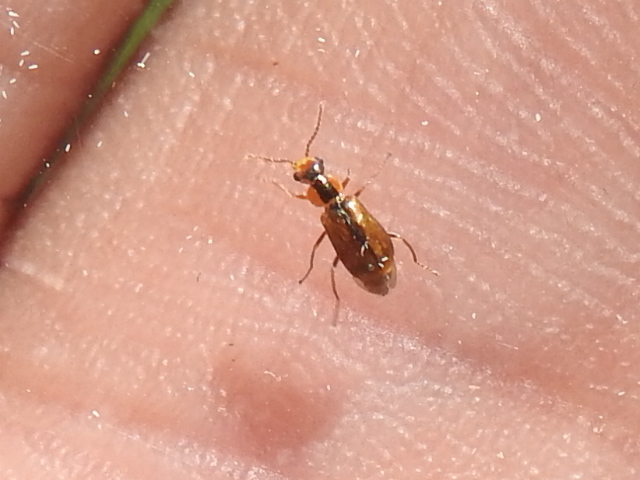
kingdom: Animalia
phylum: Arthropoda
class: Insecta
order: Coleoptera
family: Malachiidae
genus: Attalus
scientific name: Attalus
